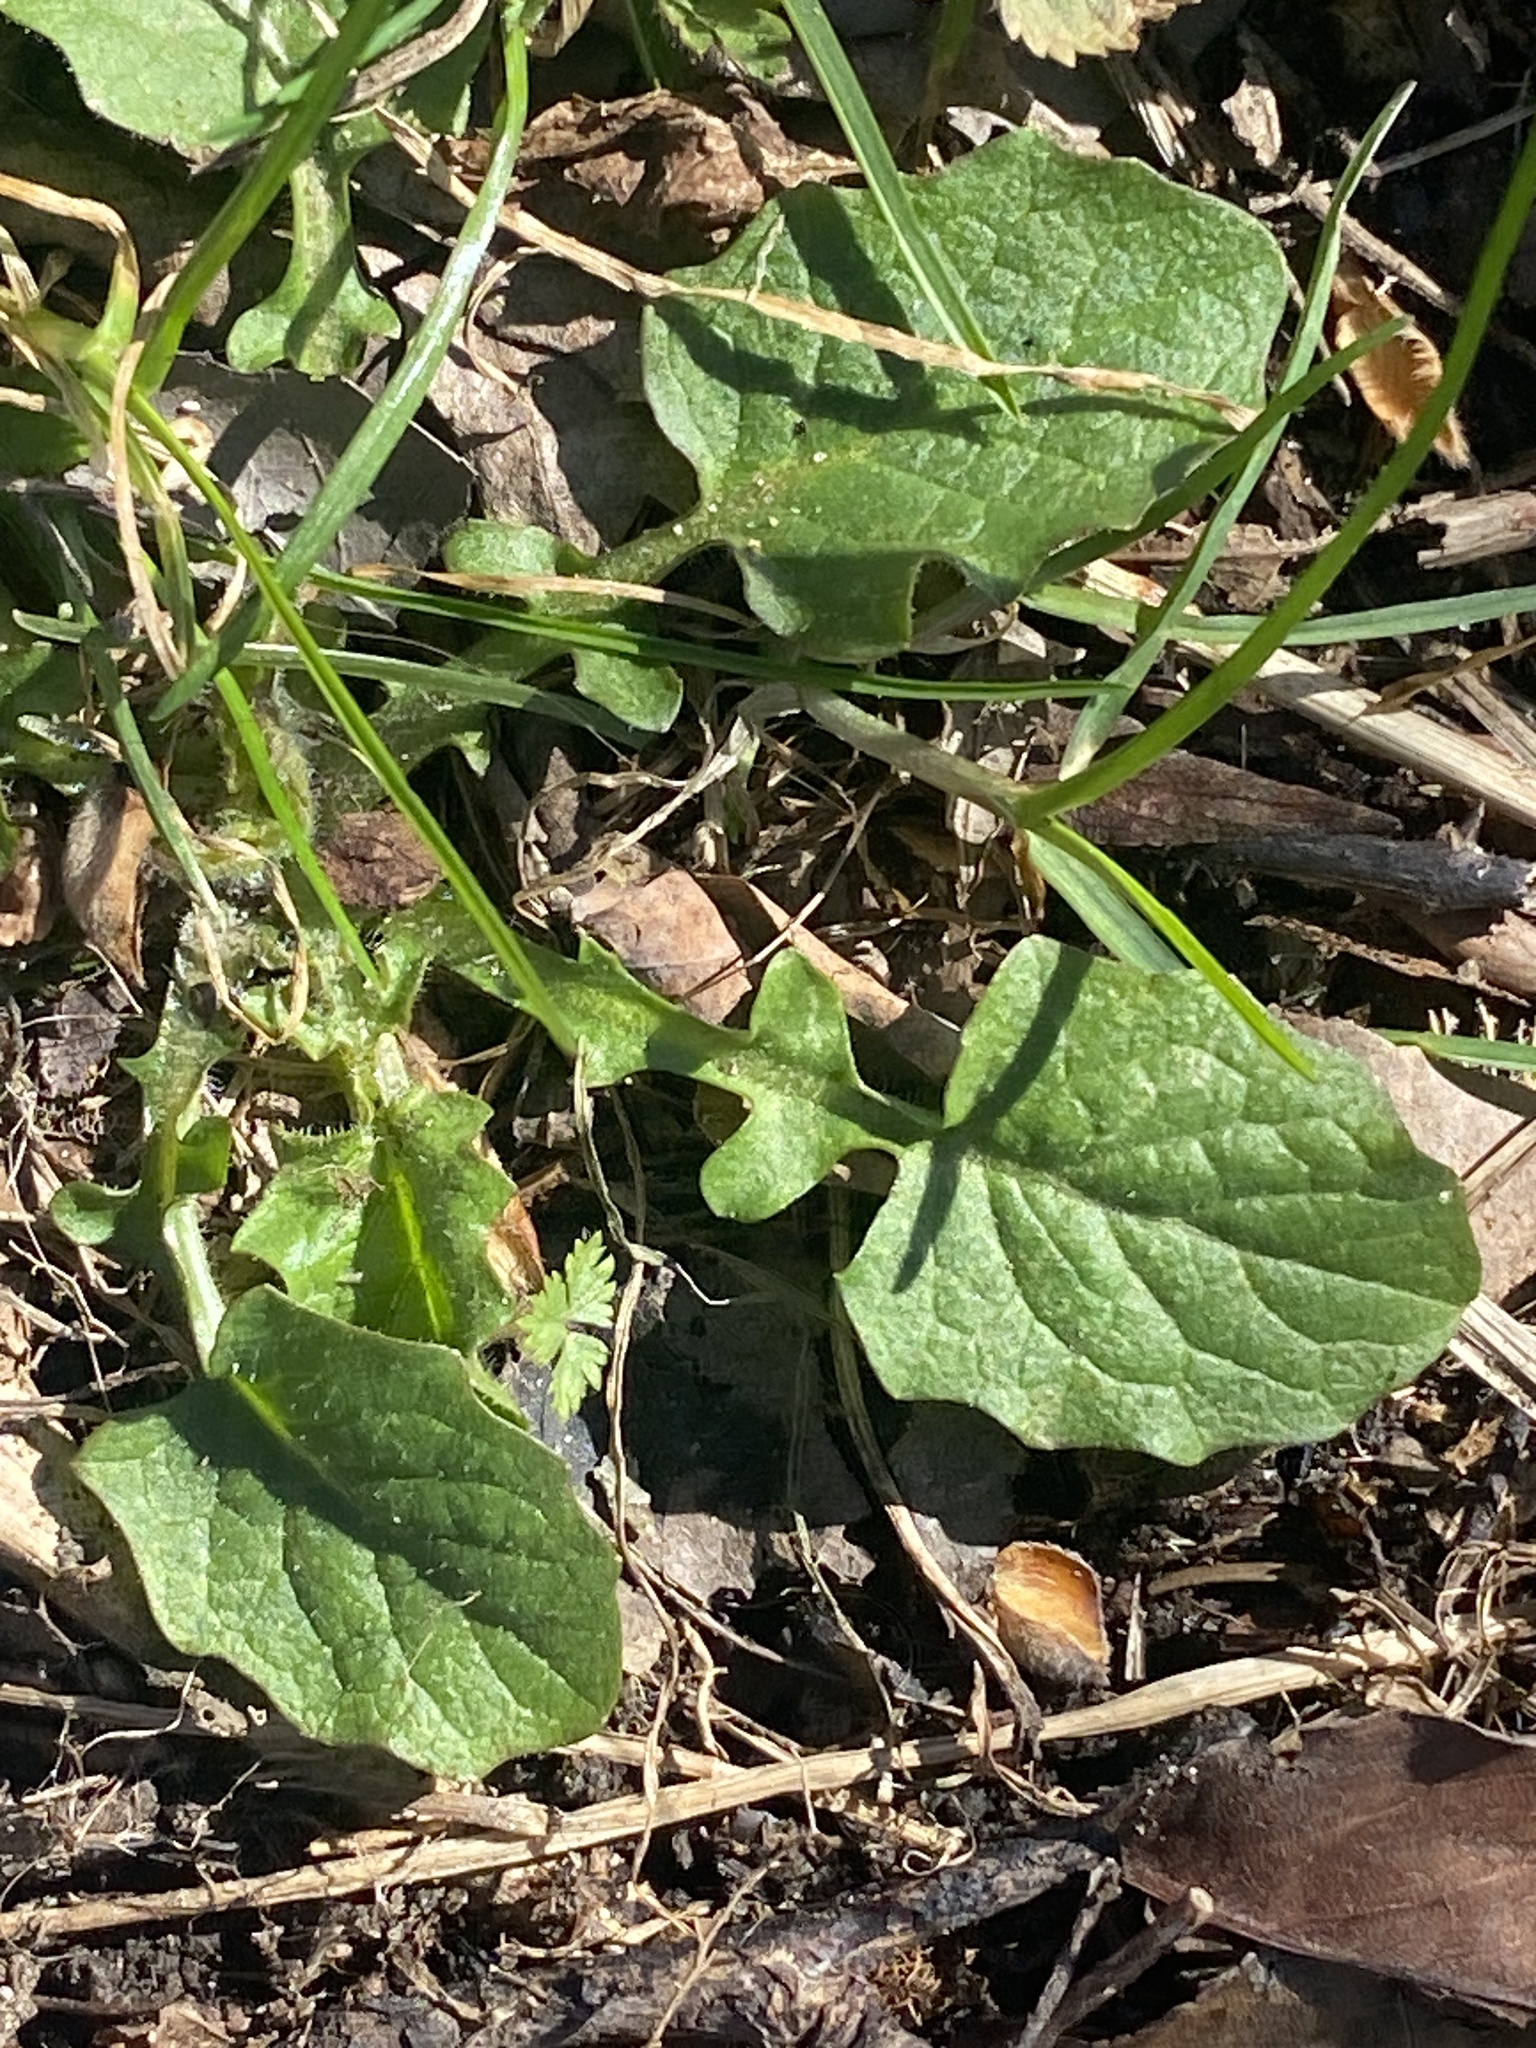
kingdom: Plantae
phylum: Tracheophyta
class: Magnoliopsida
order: Asterales
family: Asteraceae
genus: Lapsana
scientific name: Lapsana communis
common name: Nipplewort
